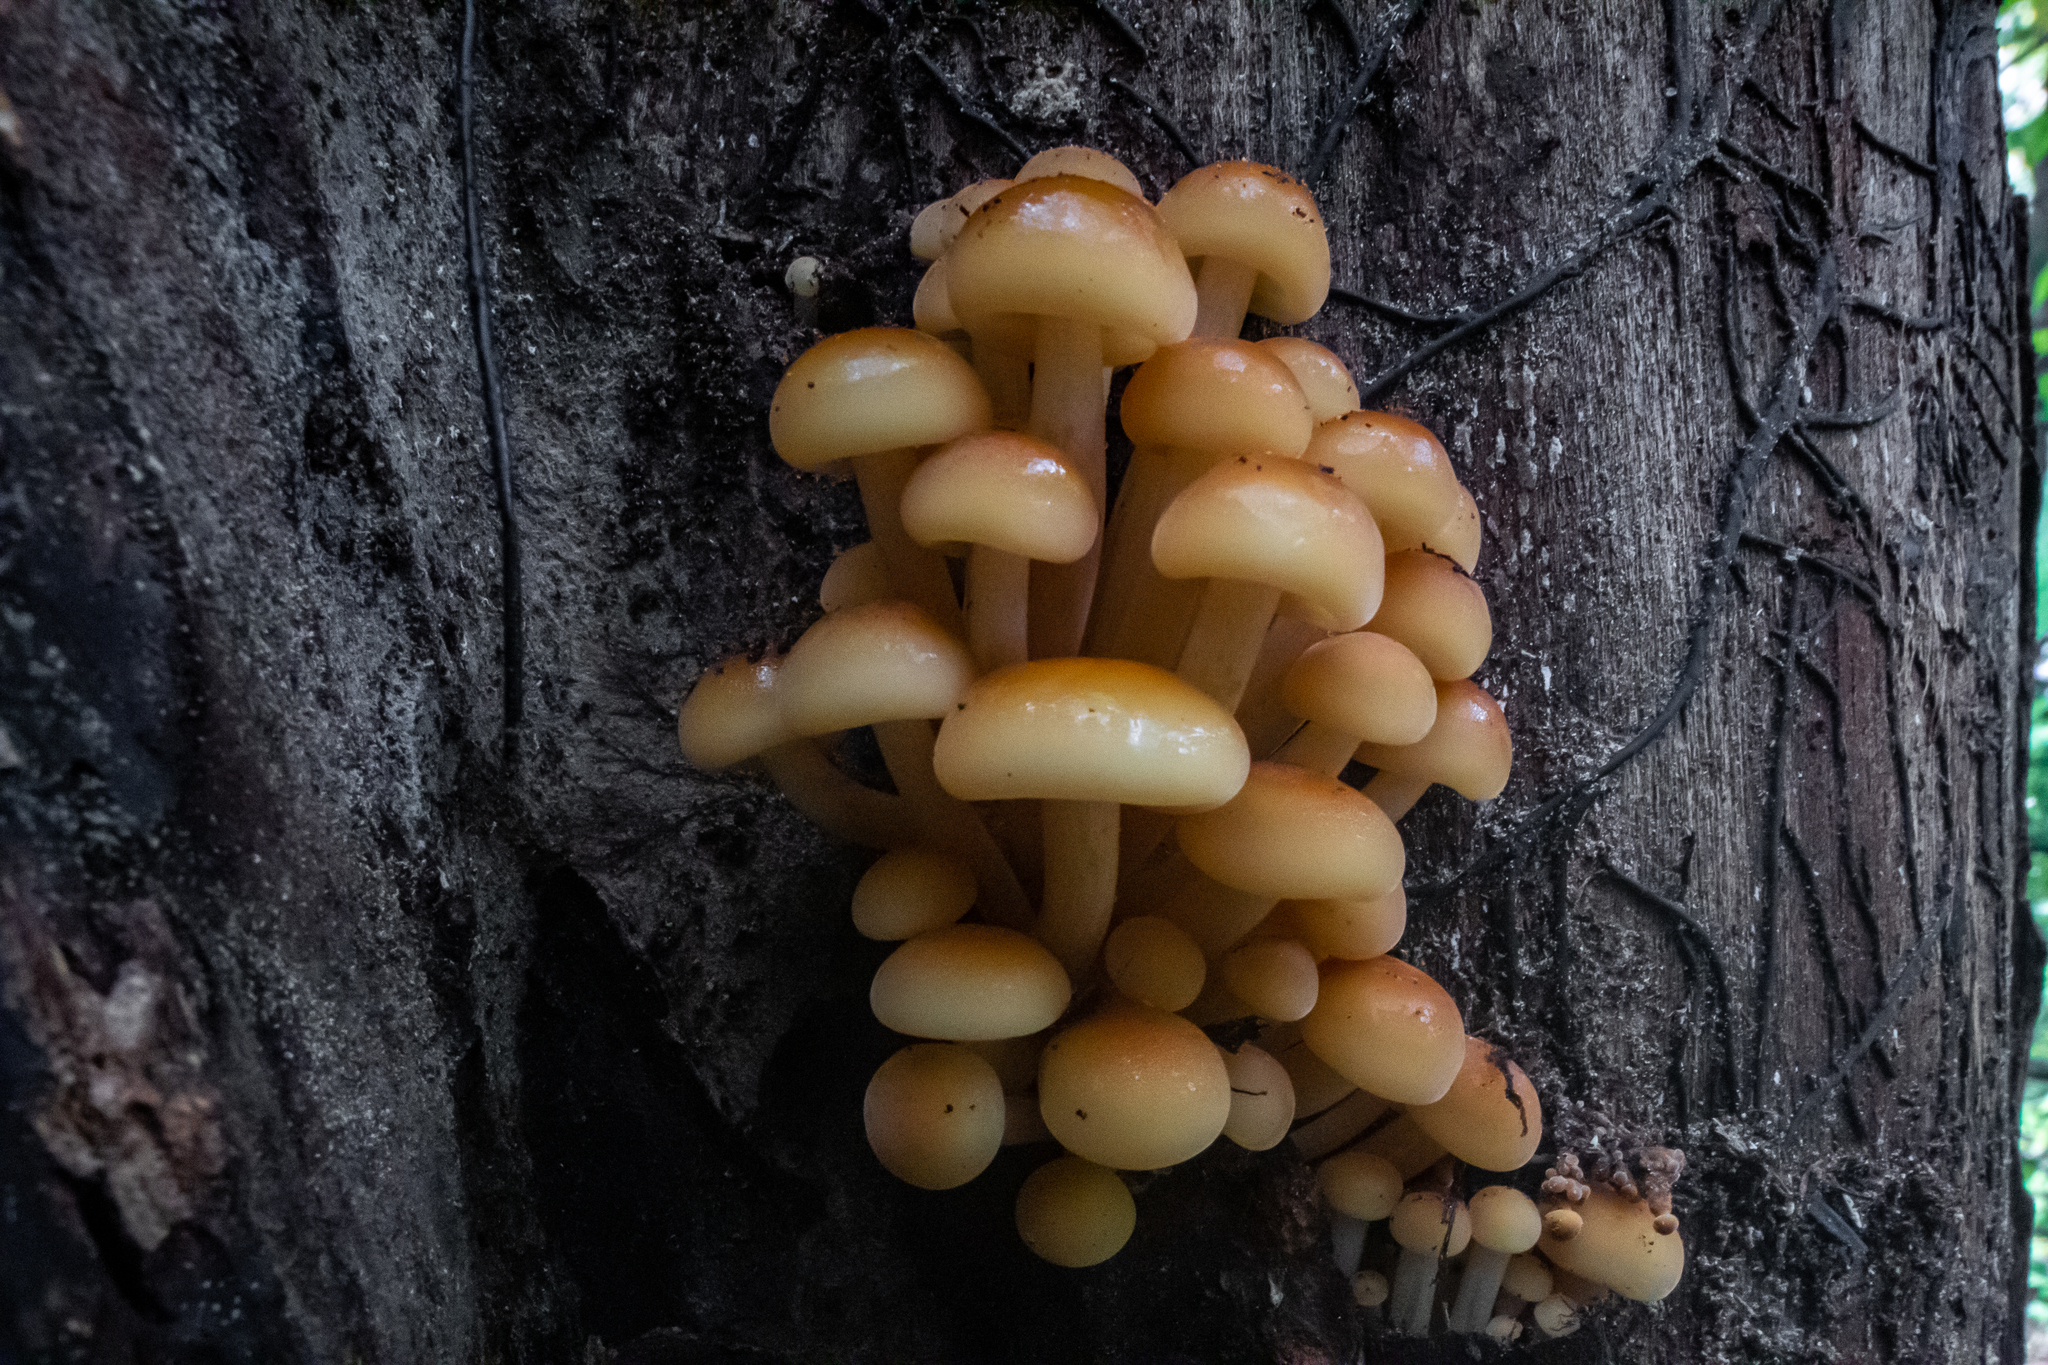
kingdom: Fungi
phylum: Basidiomycota
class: Agaricomycetes
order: Agaricales
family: Physalacriaceae
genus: Flammulina
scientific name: Flammulina velutipes
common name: Velvet shank
